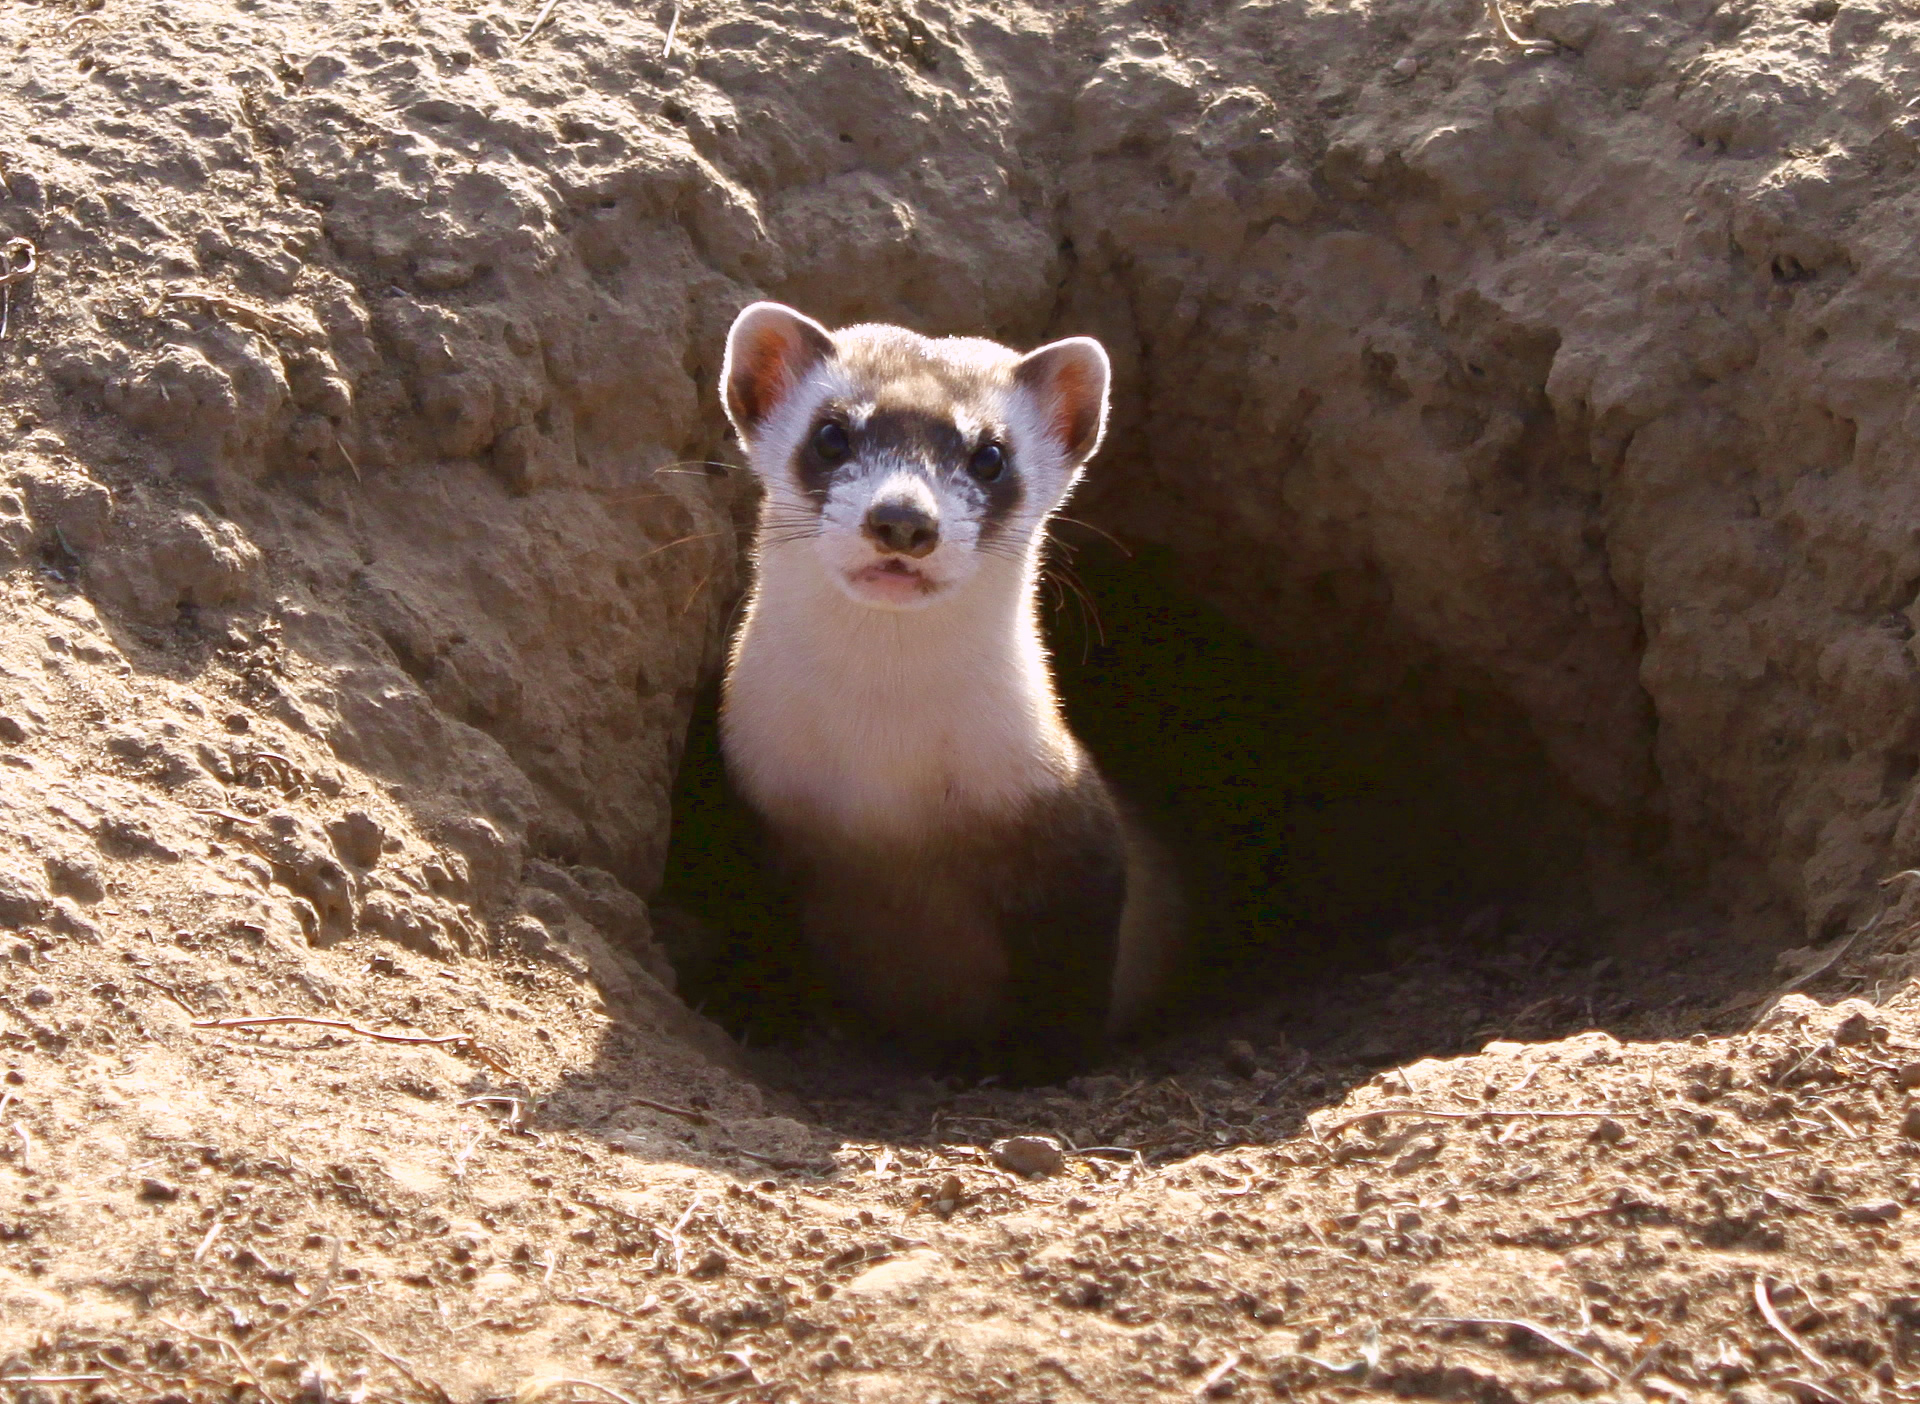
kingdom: Animalia
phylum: Chordata
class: Mammalia
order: Carnivora
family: Mustelidae
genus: Mustela
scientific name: Mustela nigripes
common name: Black-footed ferret
